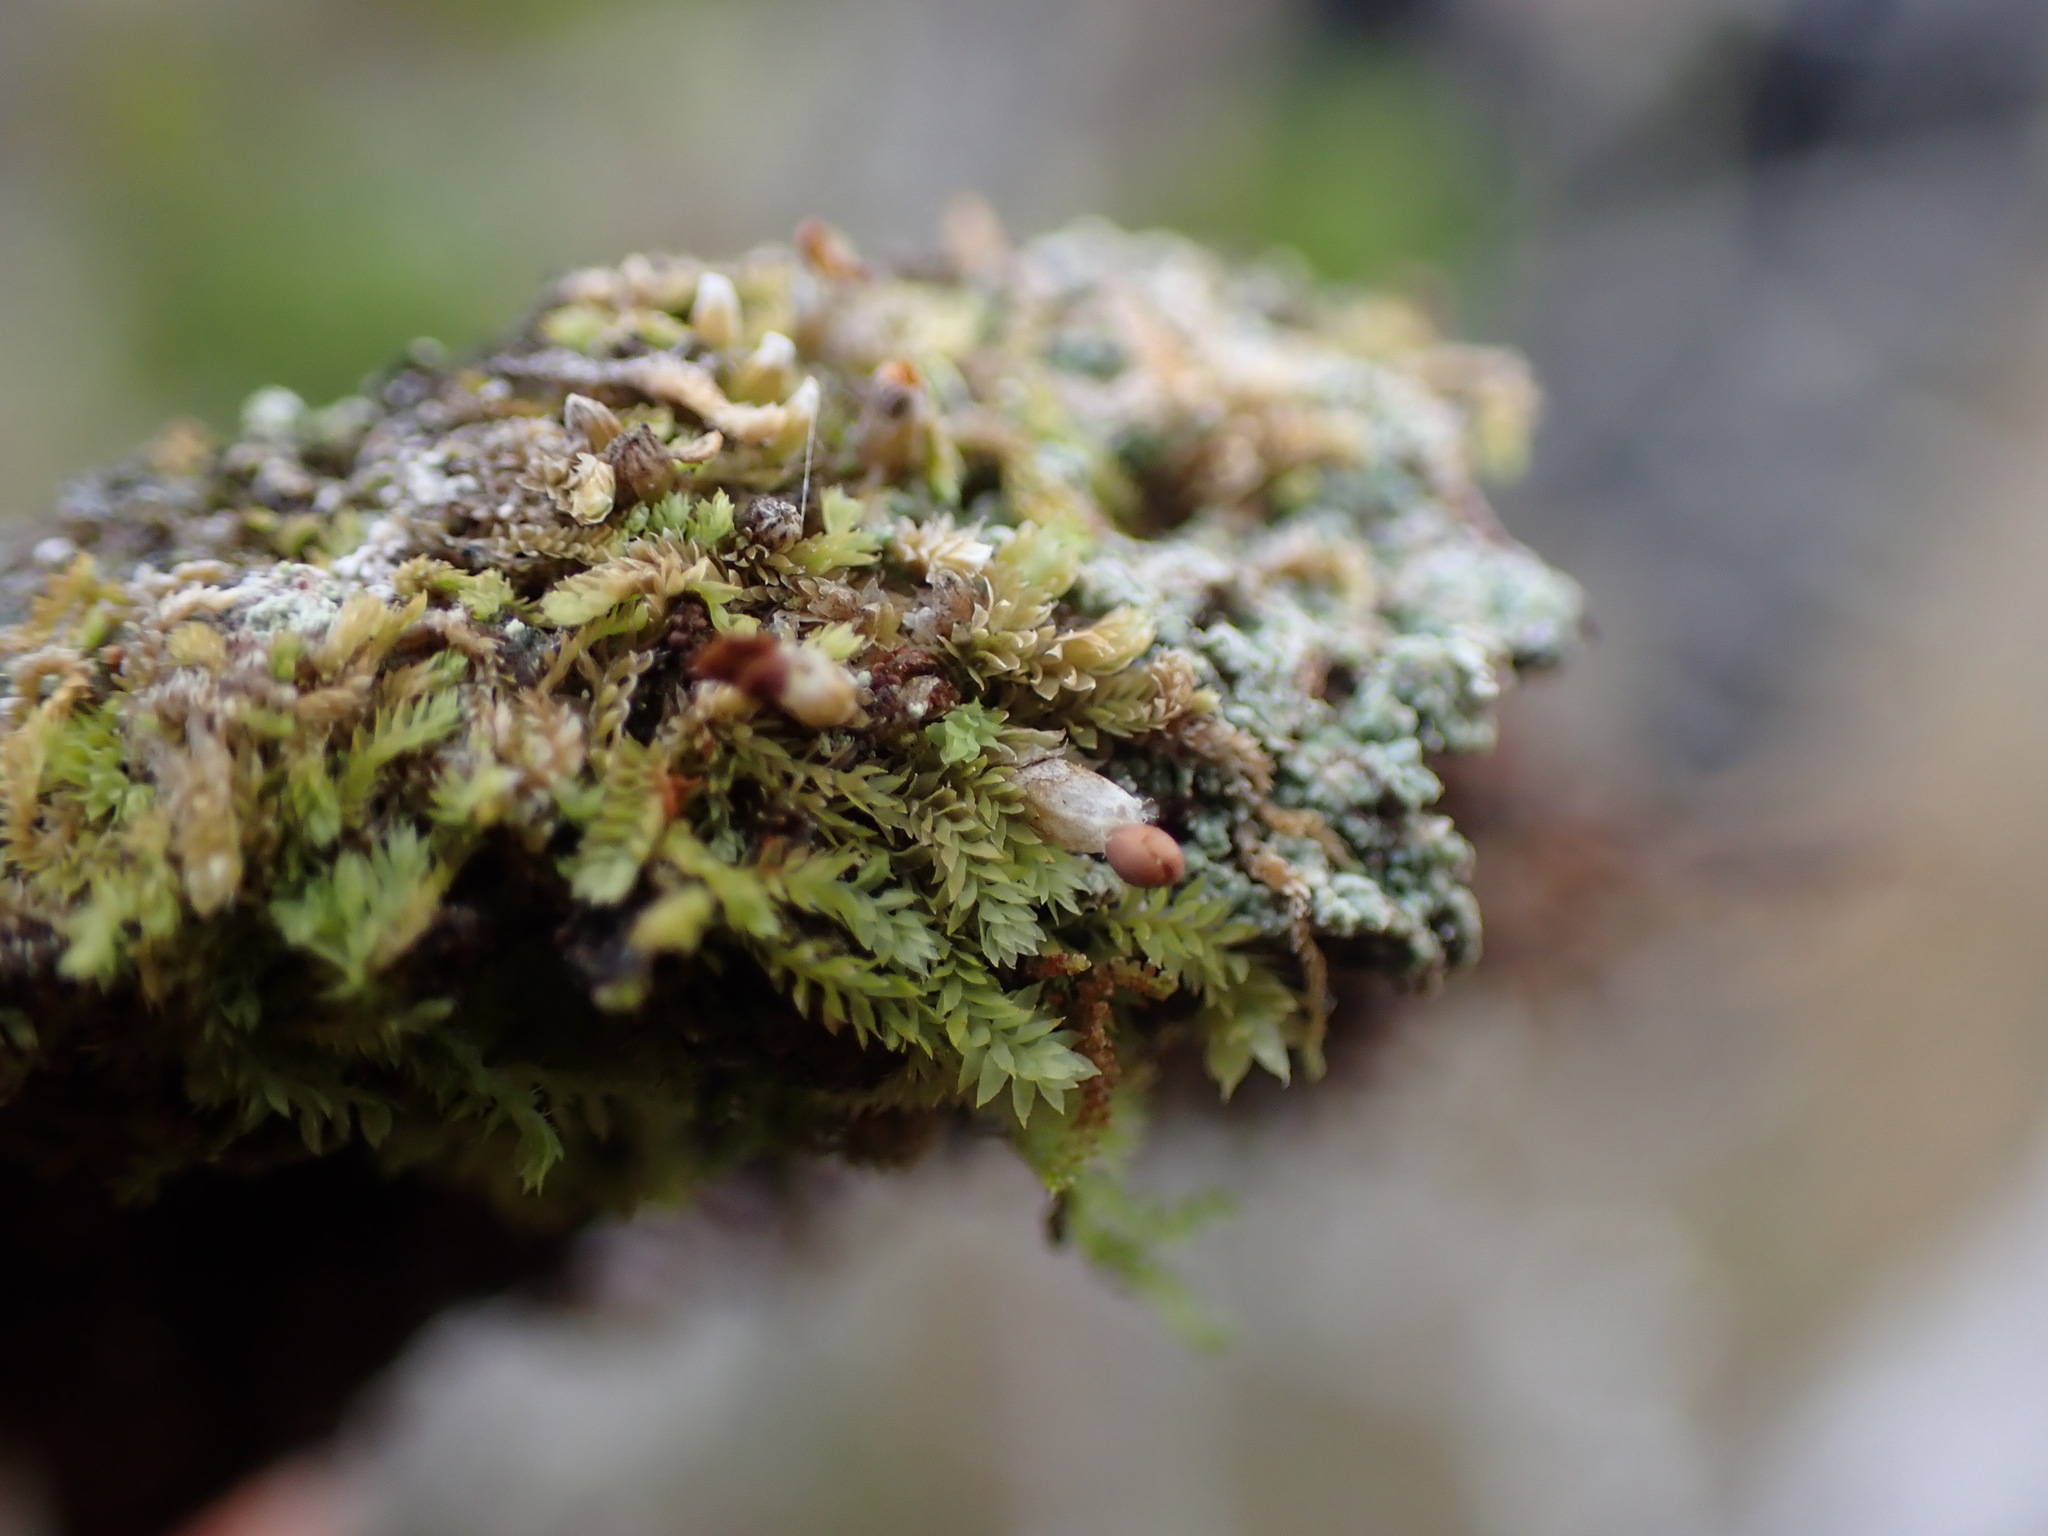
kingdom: Plantae
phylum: Marchantiophyta
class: Jungermanniopsida
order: Jungermanniales
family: Scapaniaceae
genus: Douinia
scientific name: Douinia ovata
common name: Waxy earwort
